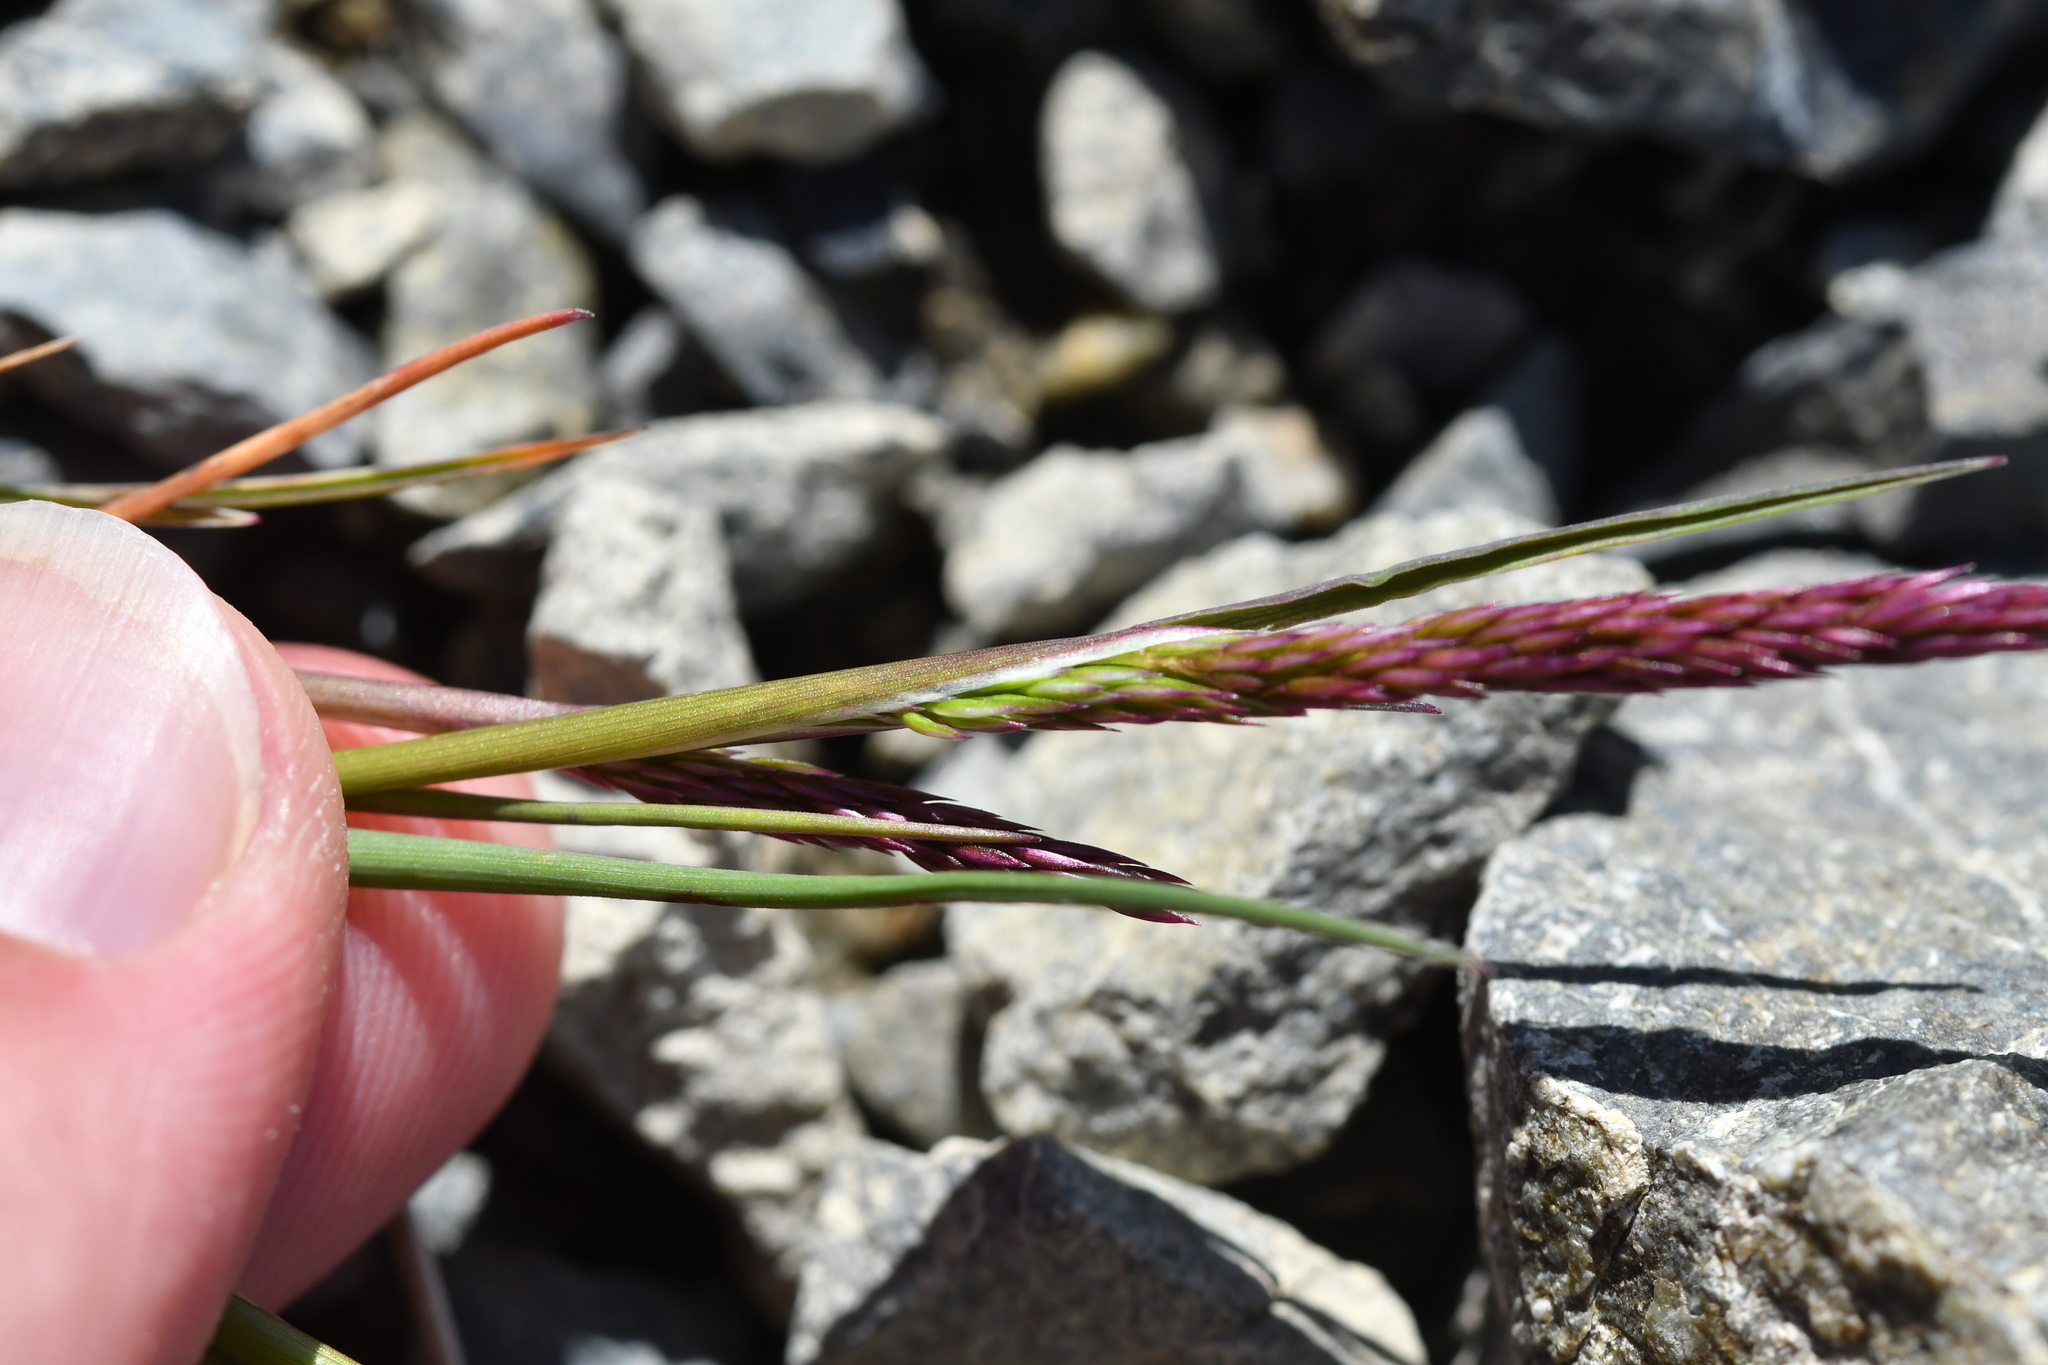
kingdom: Plantae
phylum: Tracheophyta
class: Liliopsida
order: Poales
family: Poaceae
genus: Agrostis
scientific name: Agrostis muelleriana
